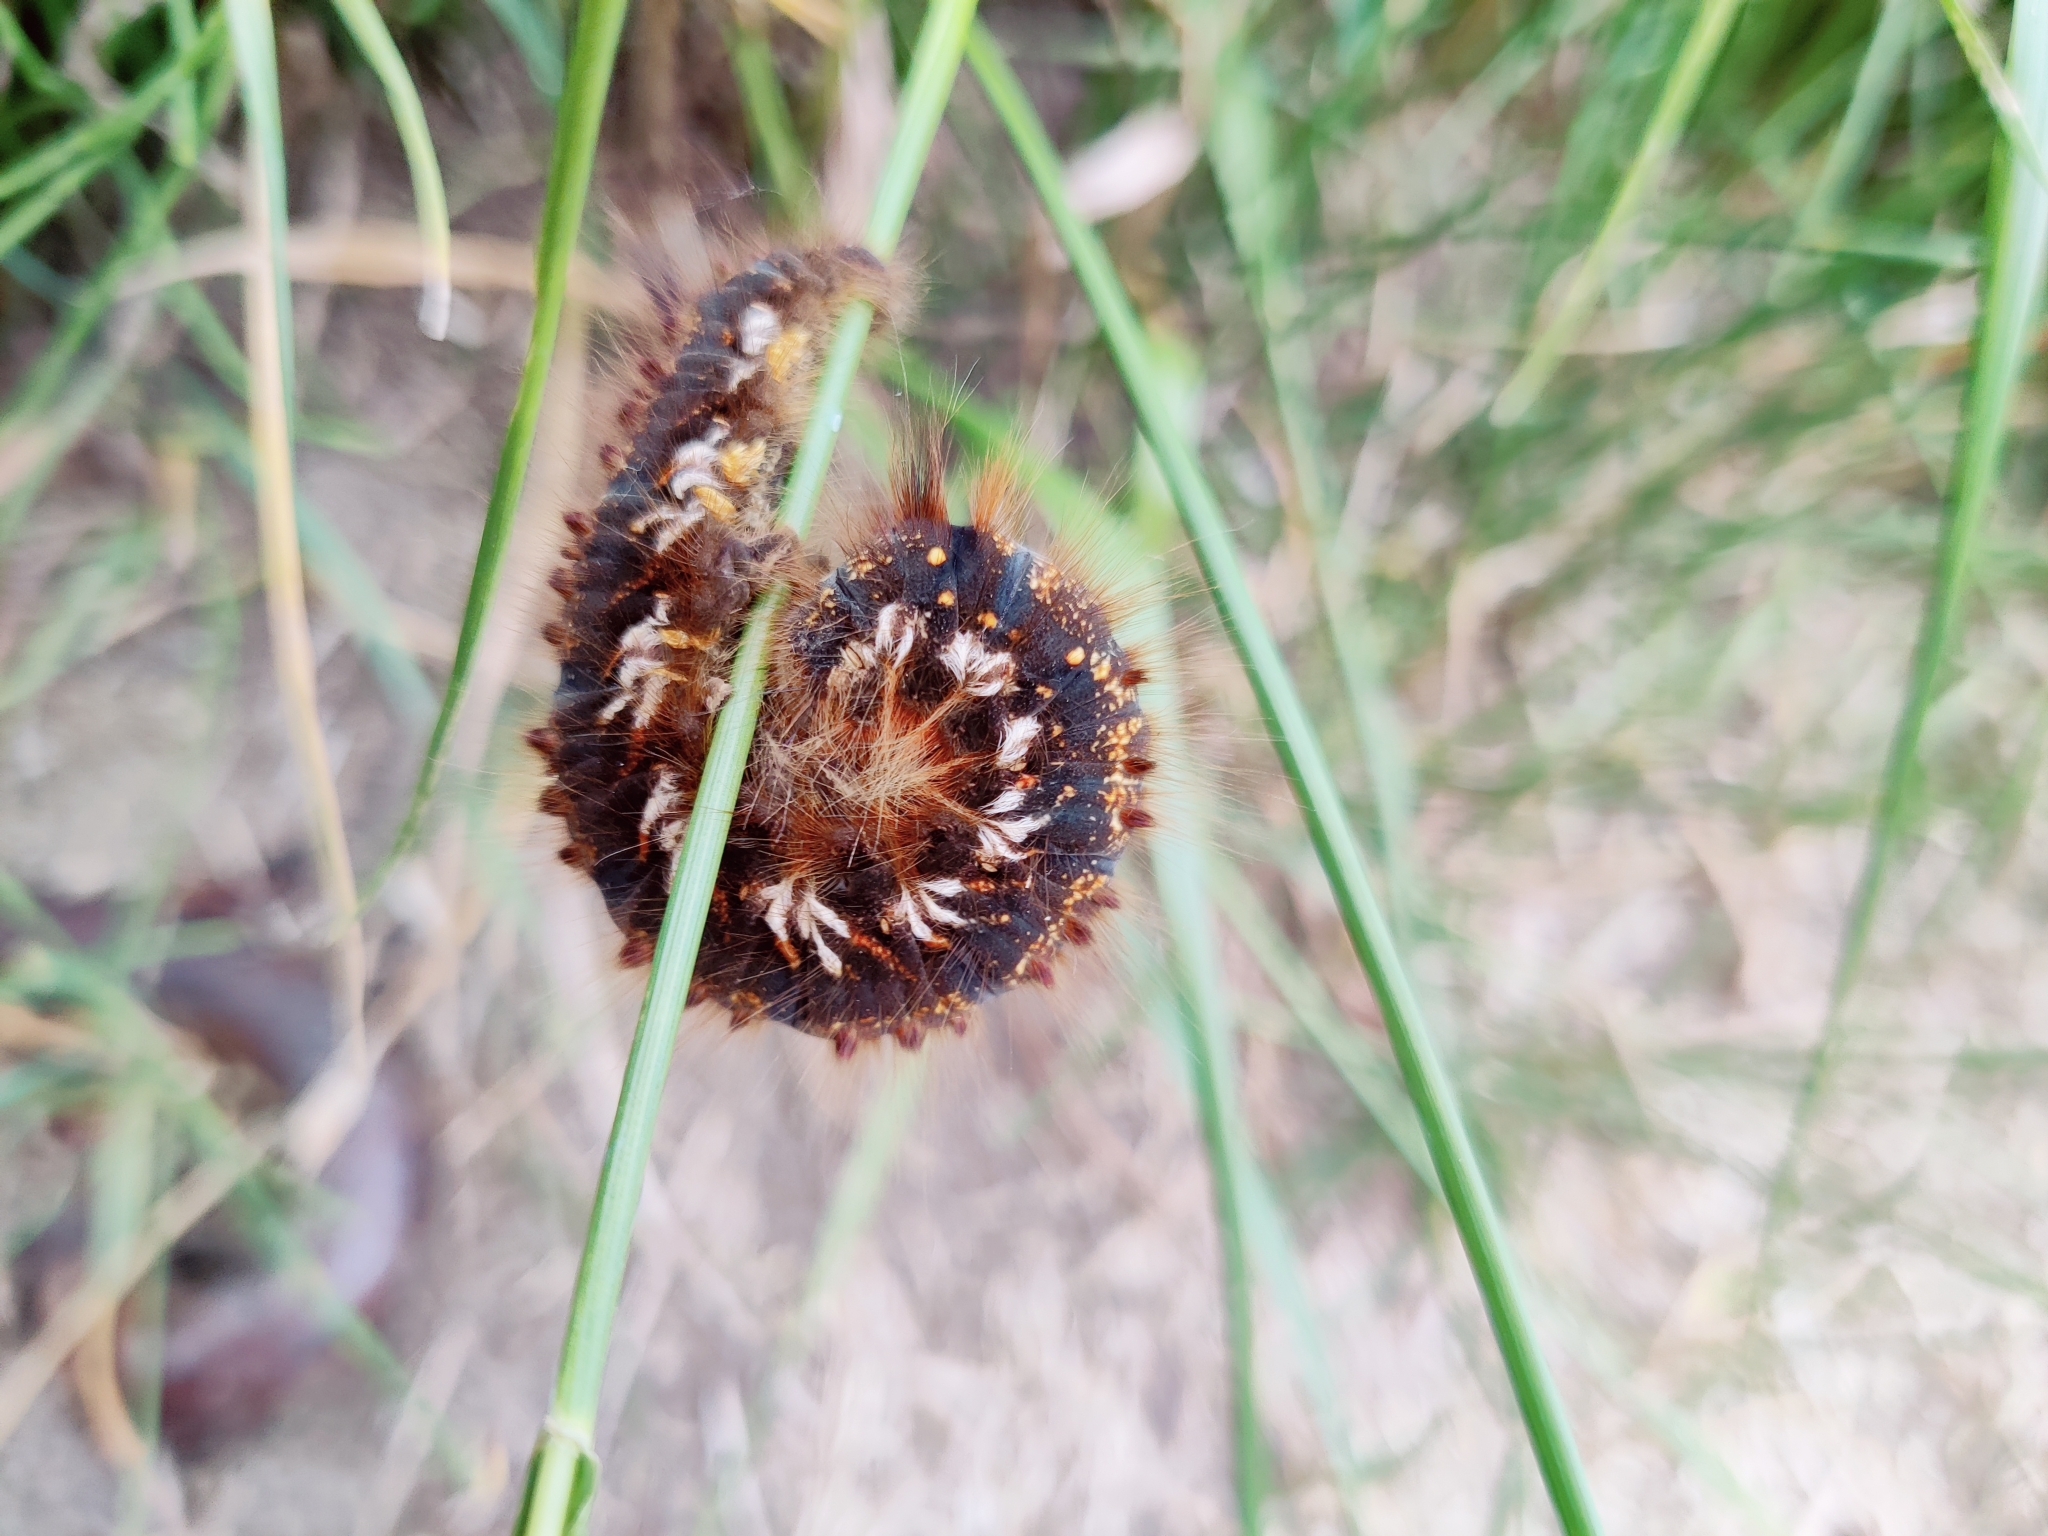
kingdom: Animalia
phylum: Arthropoda
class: Insecta
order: Lepidoptera
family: Lasiocampidae
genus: Euthrix
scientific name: Euthrix potatoria
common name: Drinker
